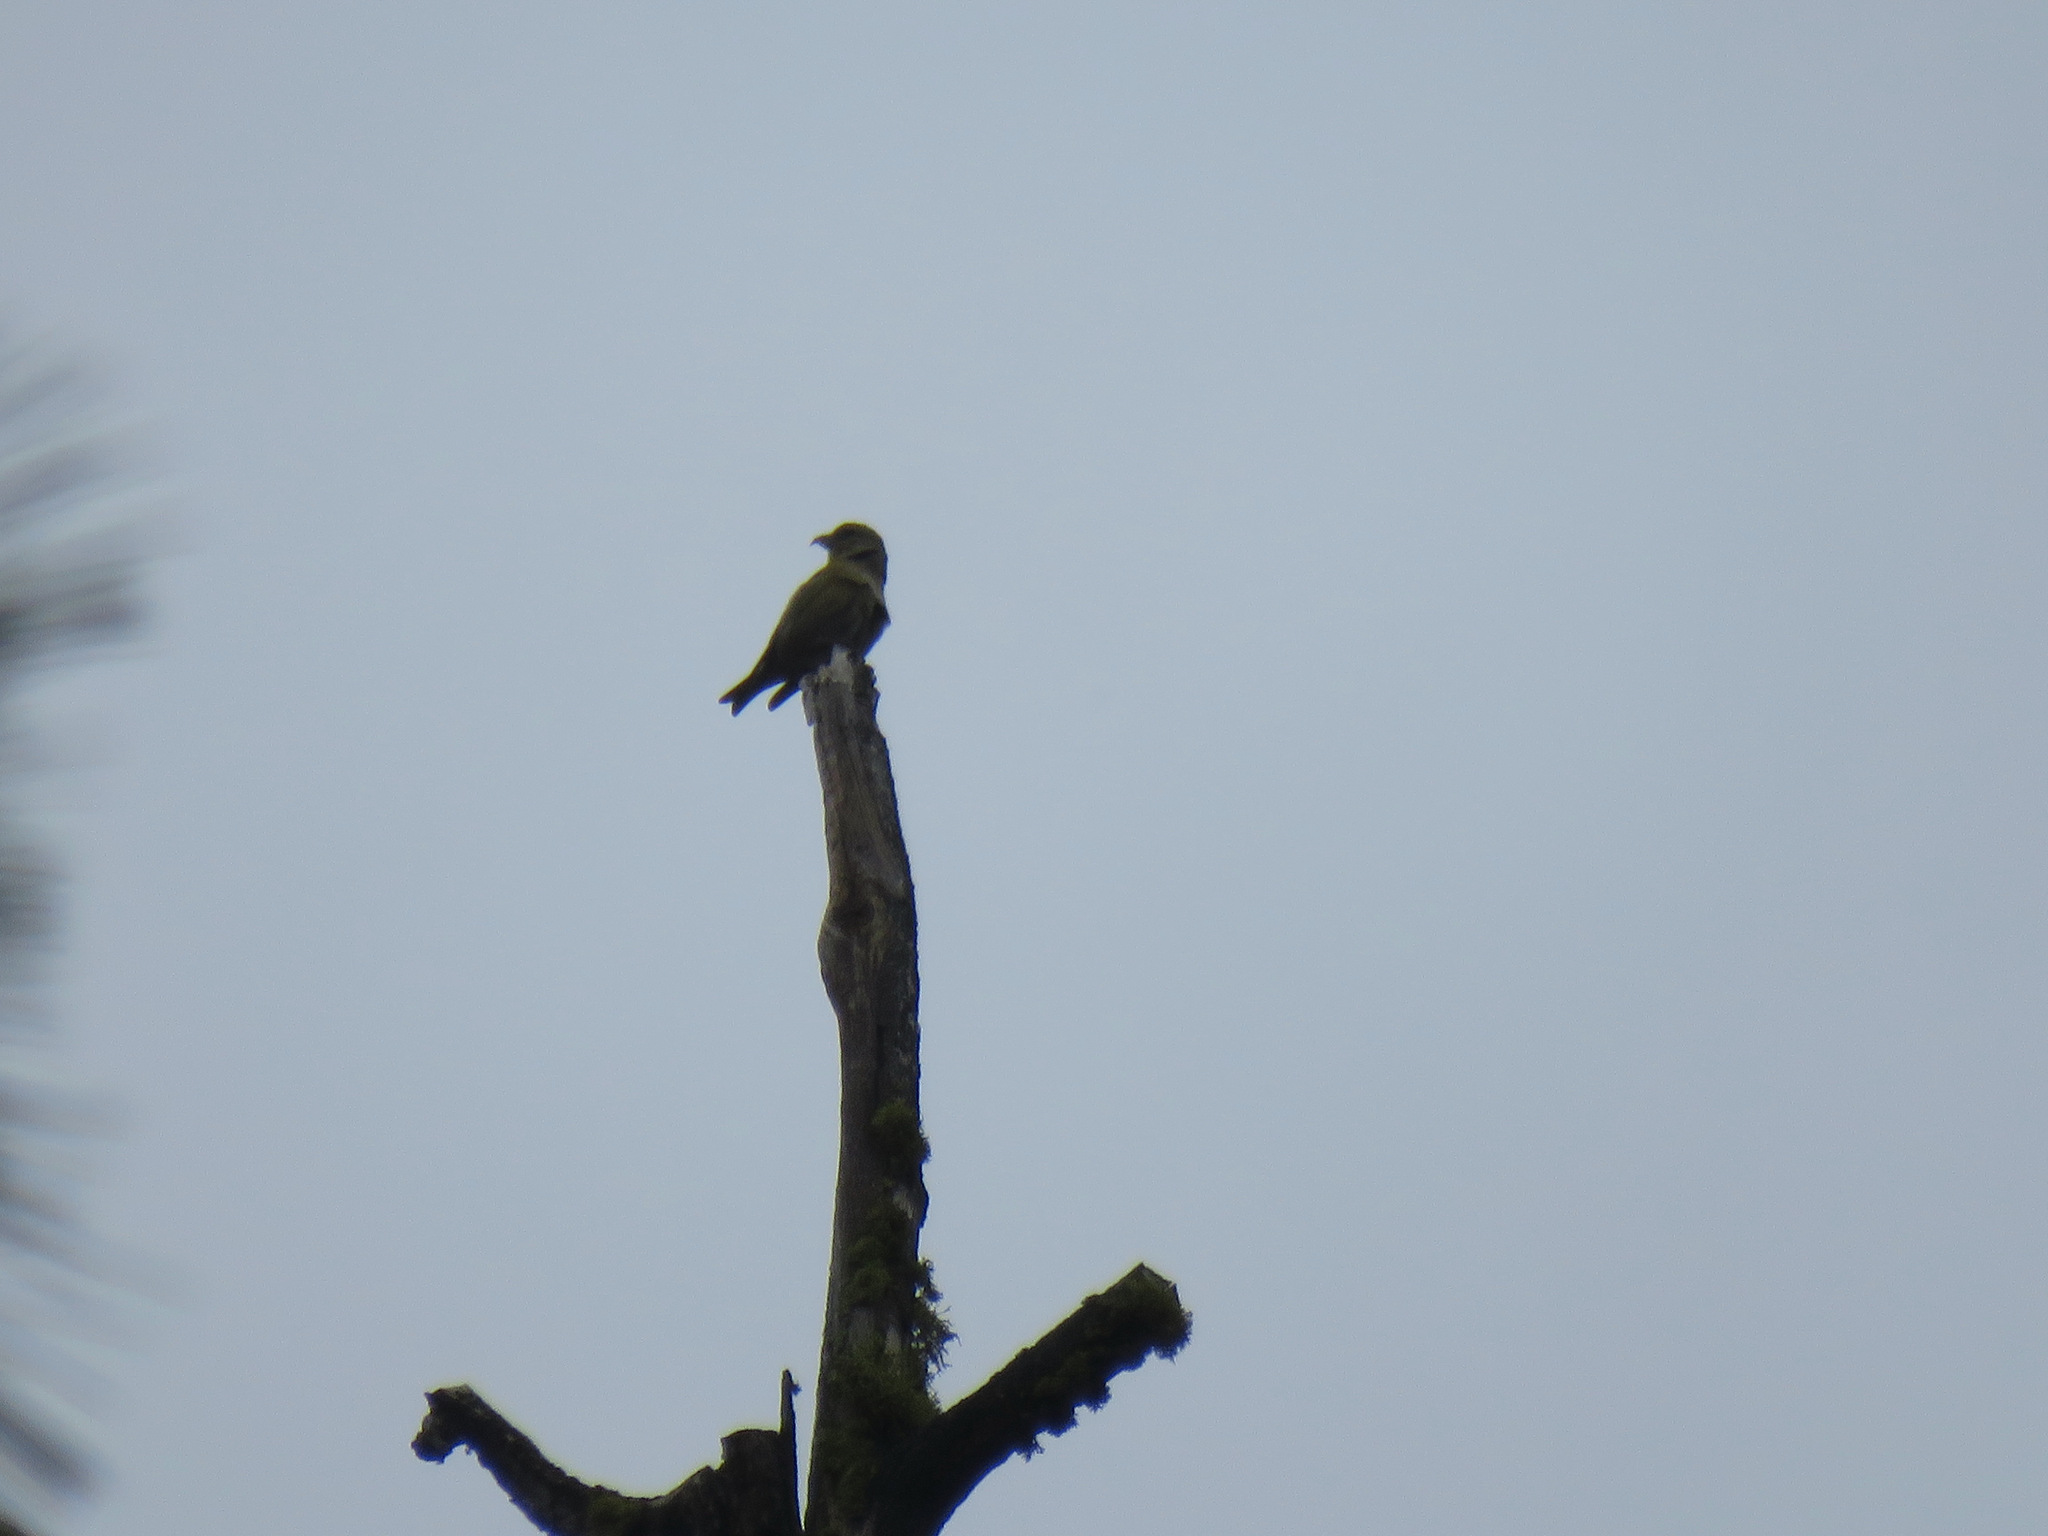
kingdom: Animalia
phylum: Chordata
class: Aves
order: Passeriformes
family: Fringillidae
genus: Loxia
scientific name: Loxia curvirostra
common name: Red crossbill
